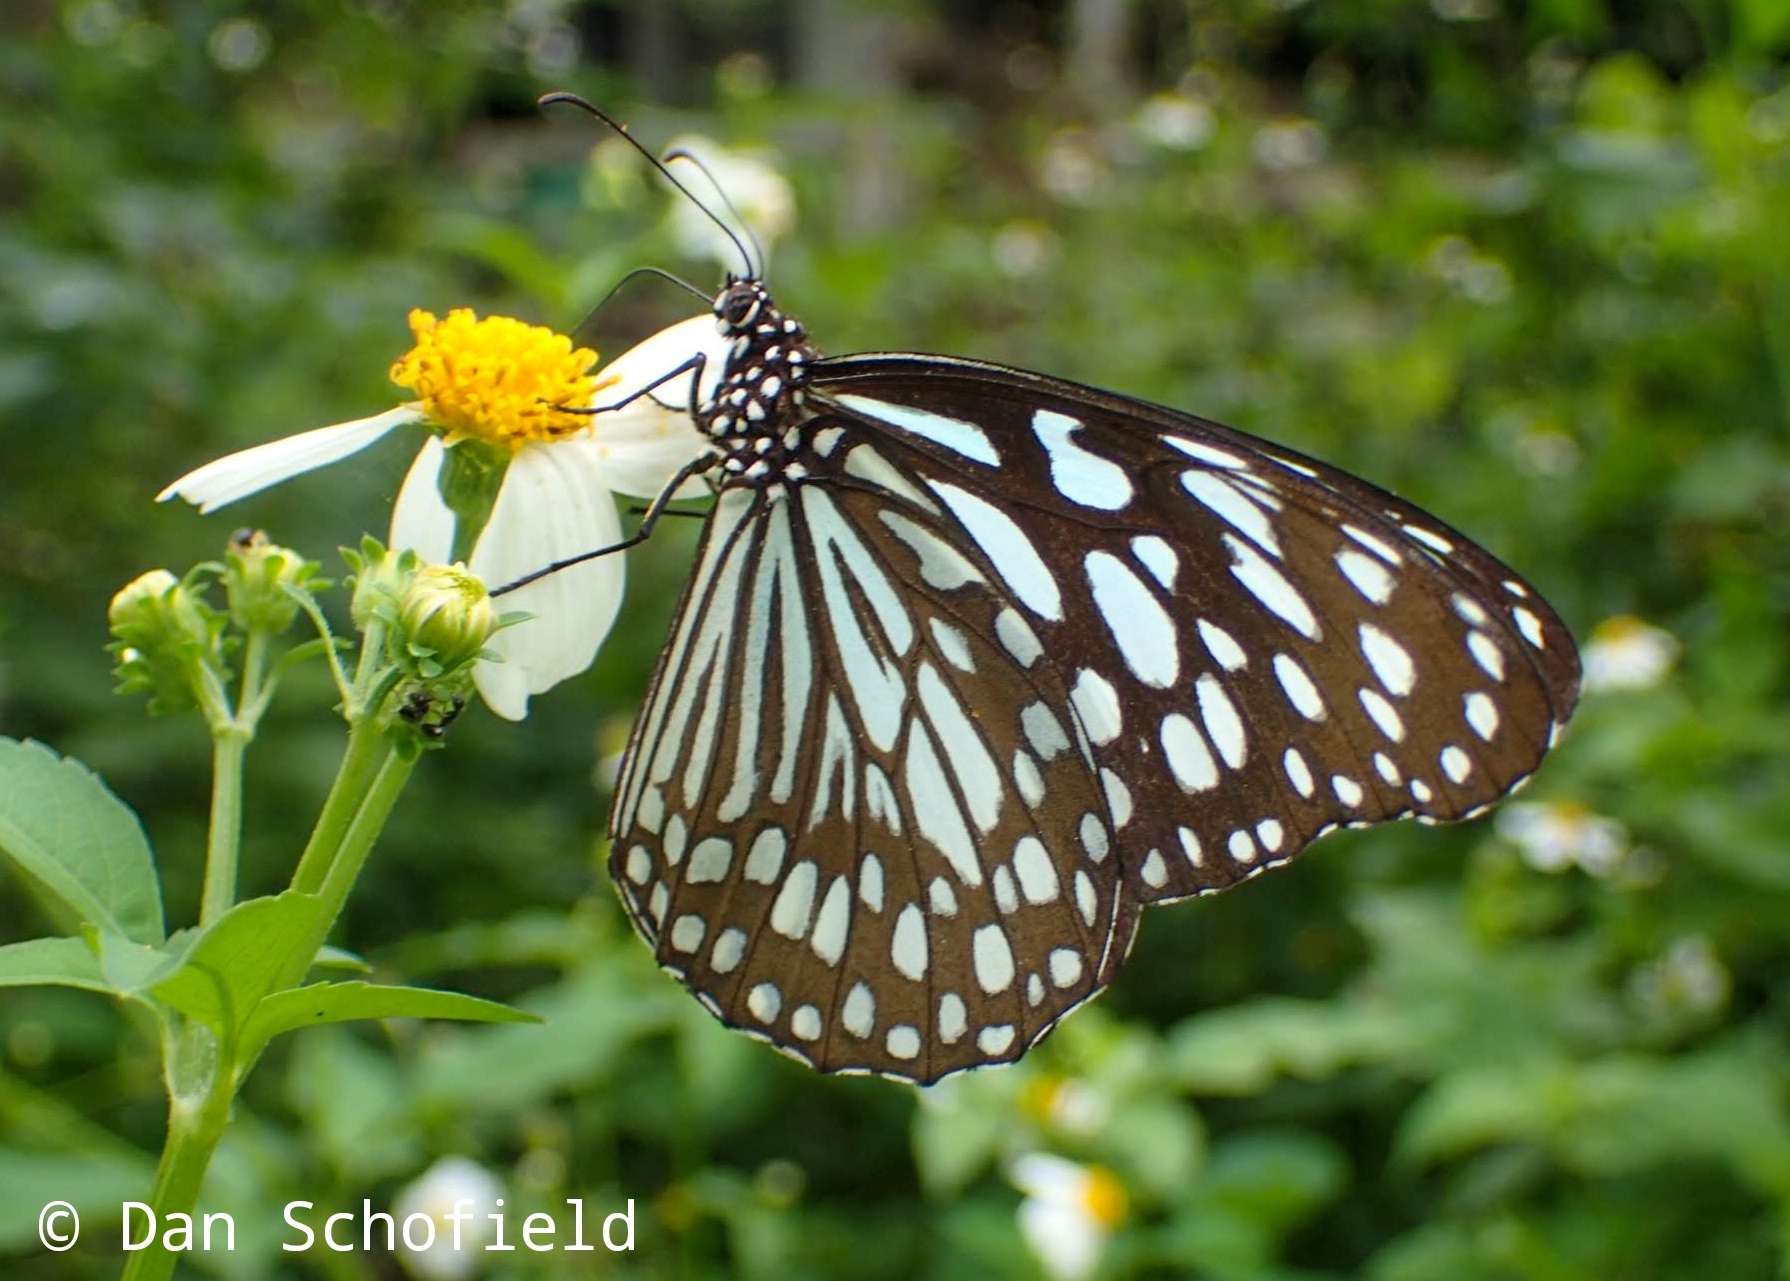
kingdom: Animalia
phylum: Arthropoda
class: Insecta
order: Lepidoptera
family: Nymphalidae
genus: Tirumala
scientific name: Tirumala limniace
